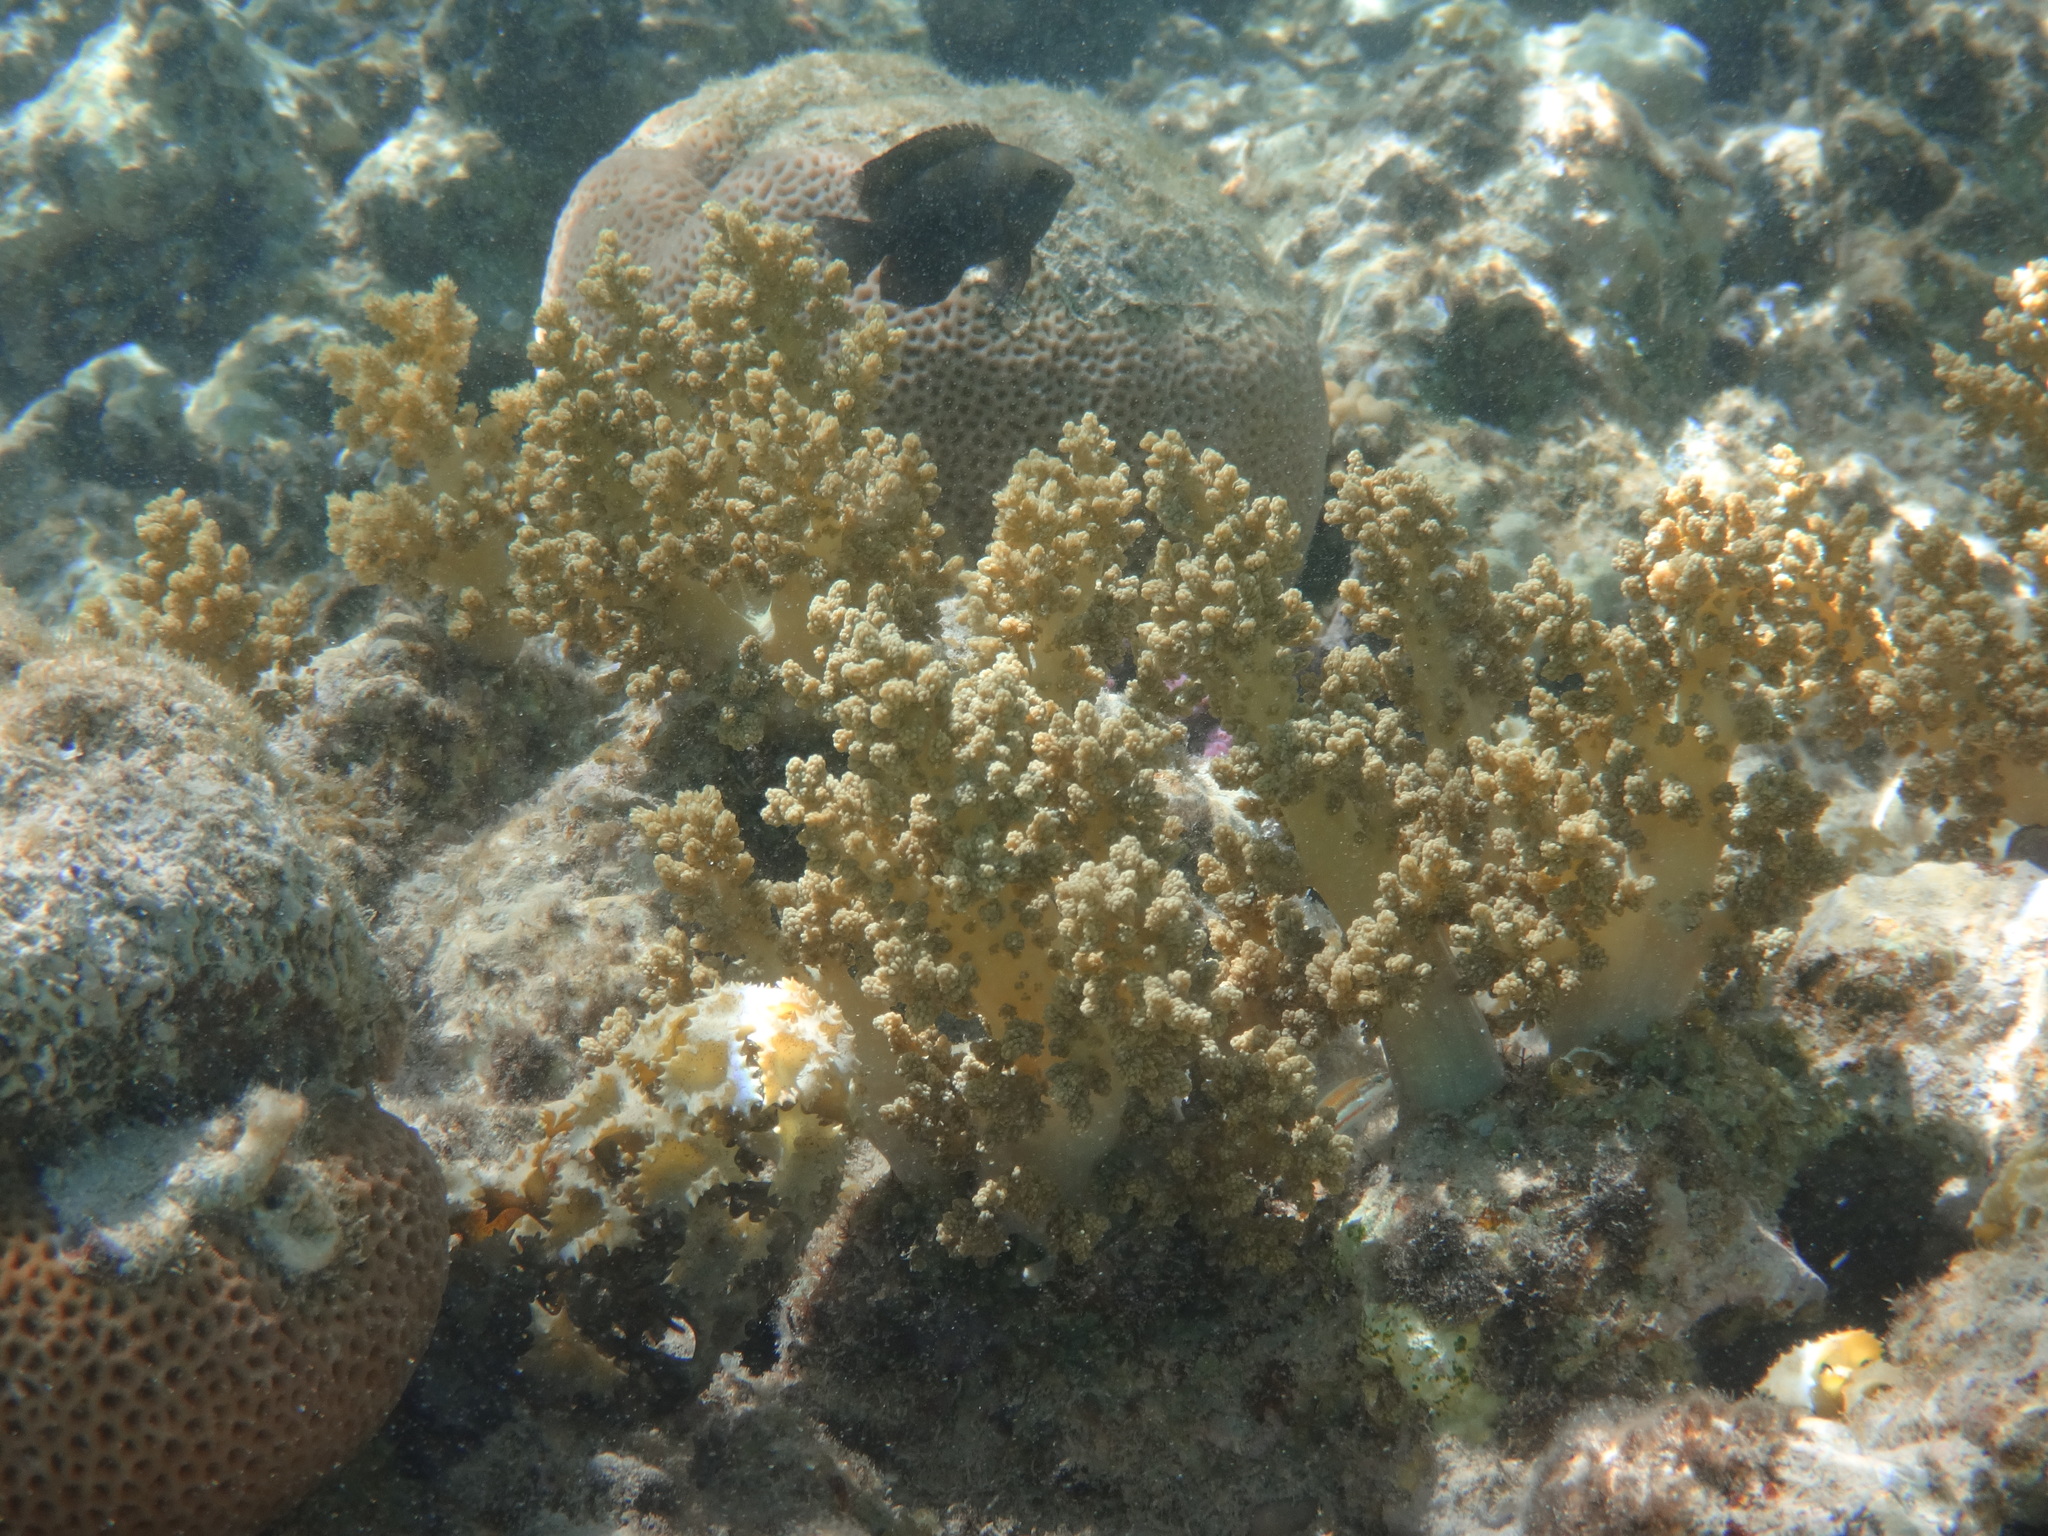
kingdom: Animalia
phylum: Cnidaria
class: Anthozoa
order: Malacalcyonacea
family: Nephtheidae
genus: Litophyton
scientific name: Litophyton arboreum
